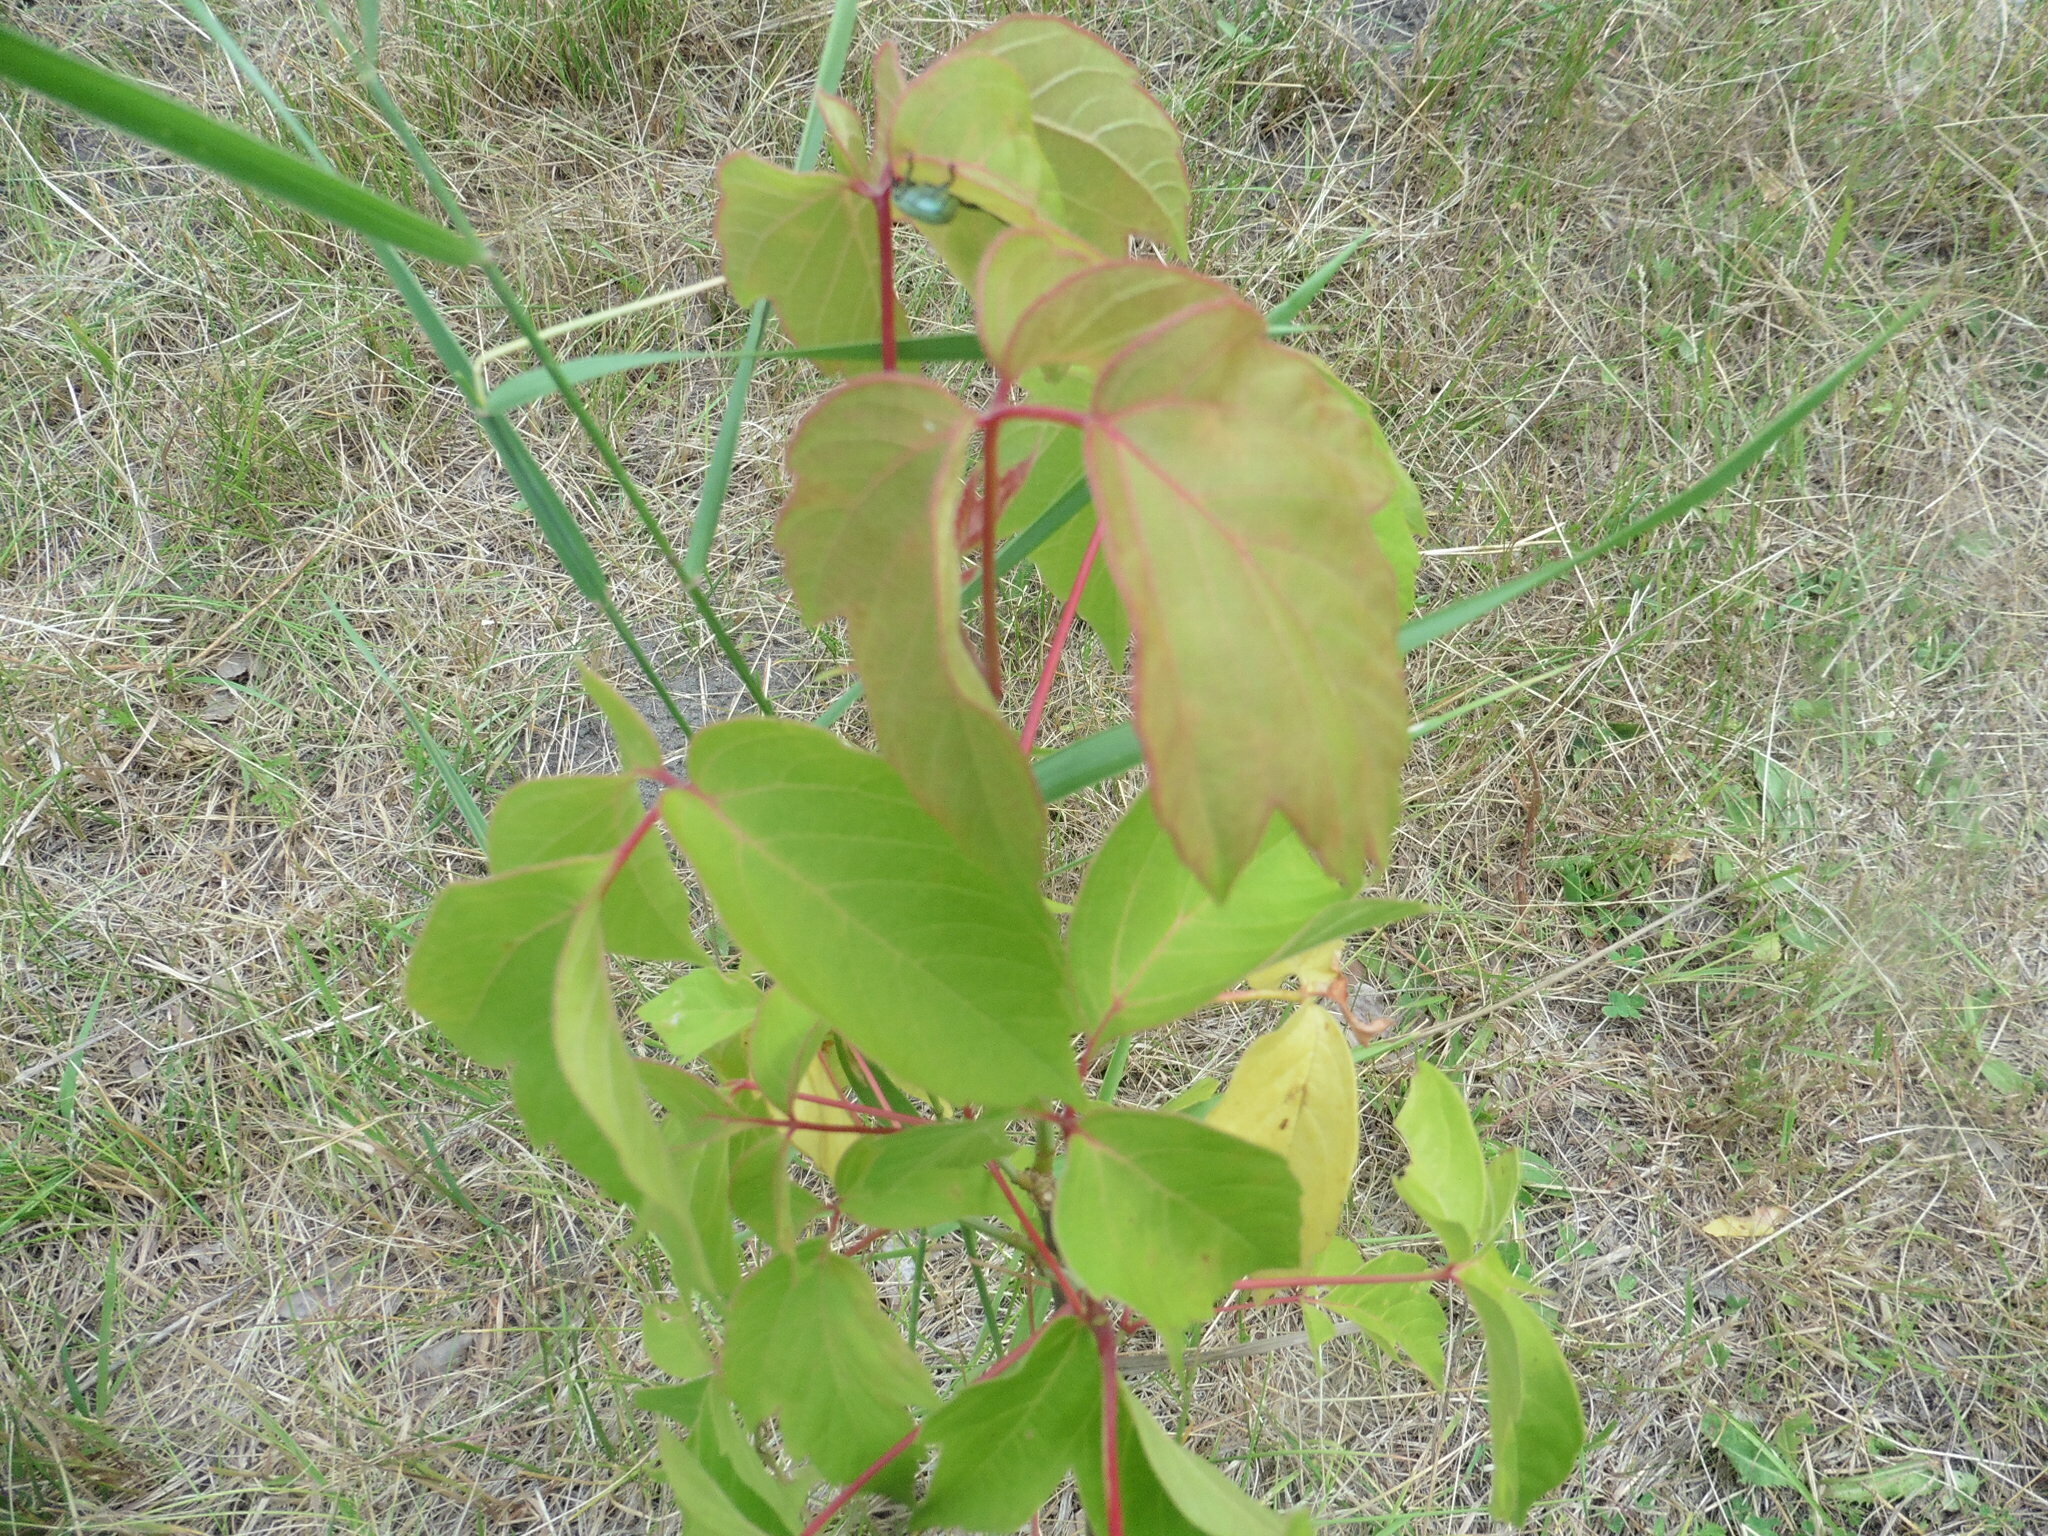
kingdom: Plantae
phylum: Tracheophyta
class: Magnoliopsida
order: Sapindales
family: Sapindaceae
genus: Acer
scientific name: Acer negundo
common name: Ashleaf maple
